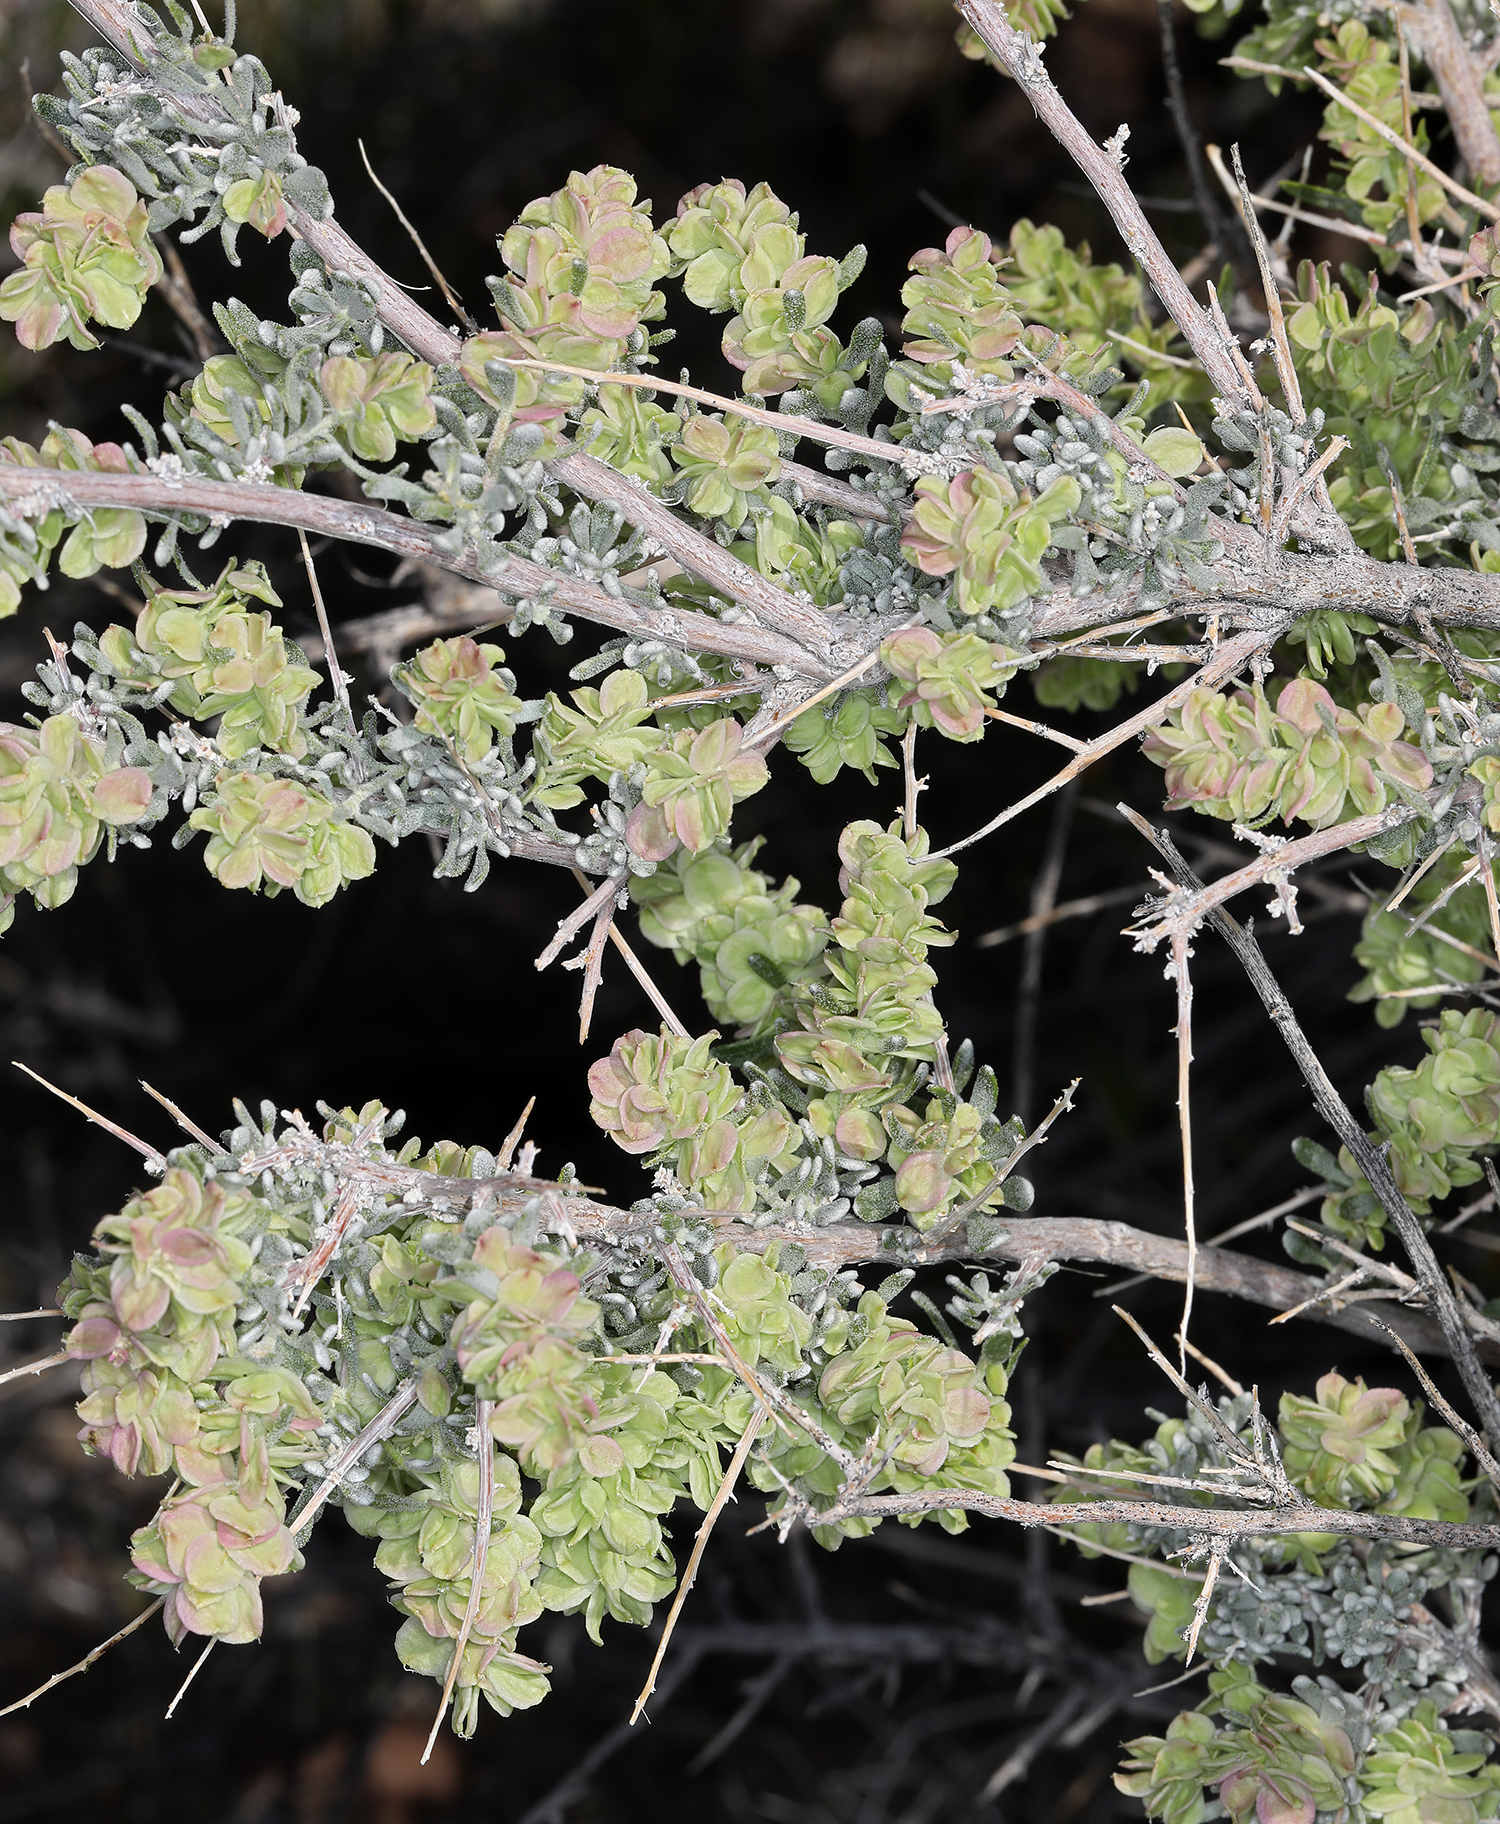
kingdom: Plantae
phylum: Tracheophyta
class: Magnoliopsida
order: Caryophyllales
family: Amaranthaceae
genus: Grayia
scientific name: Grayia spinosa
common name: Spiny hopsage
